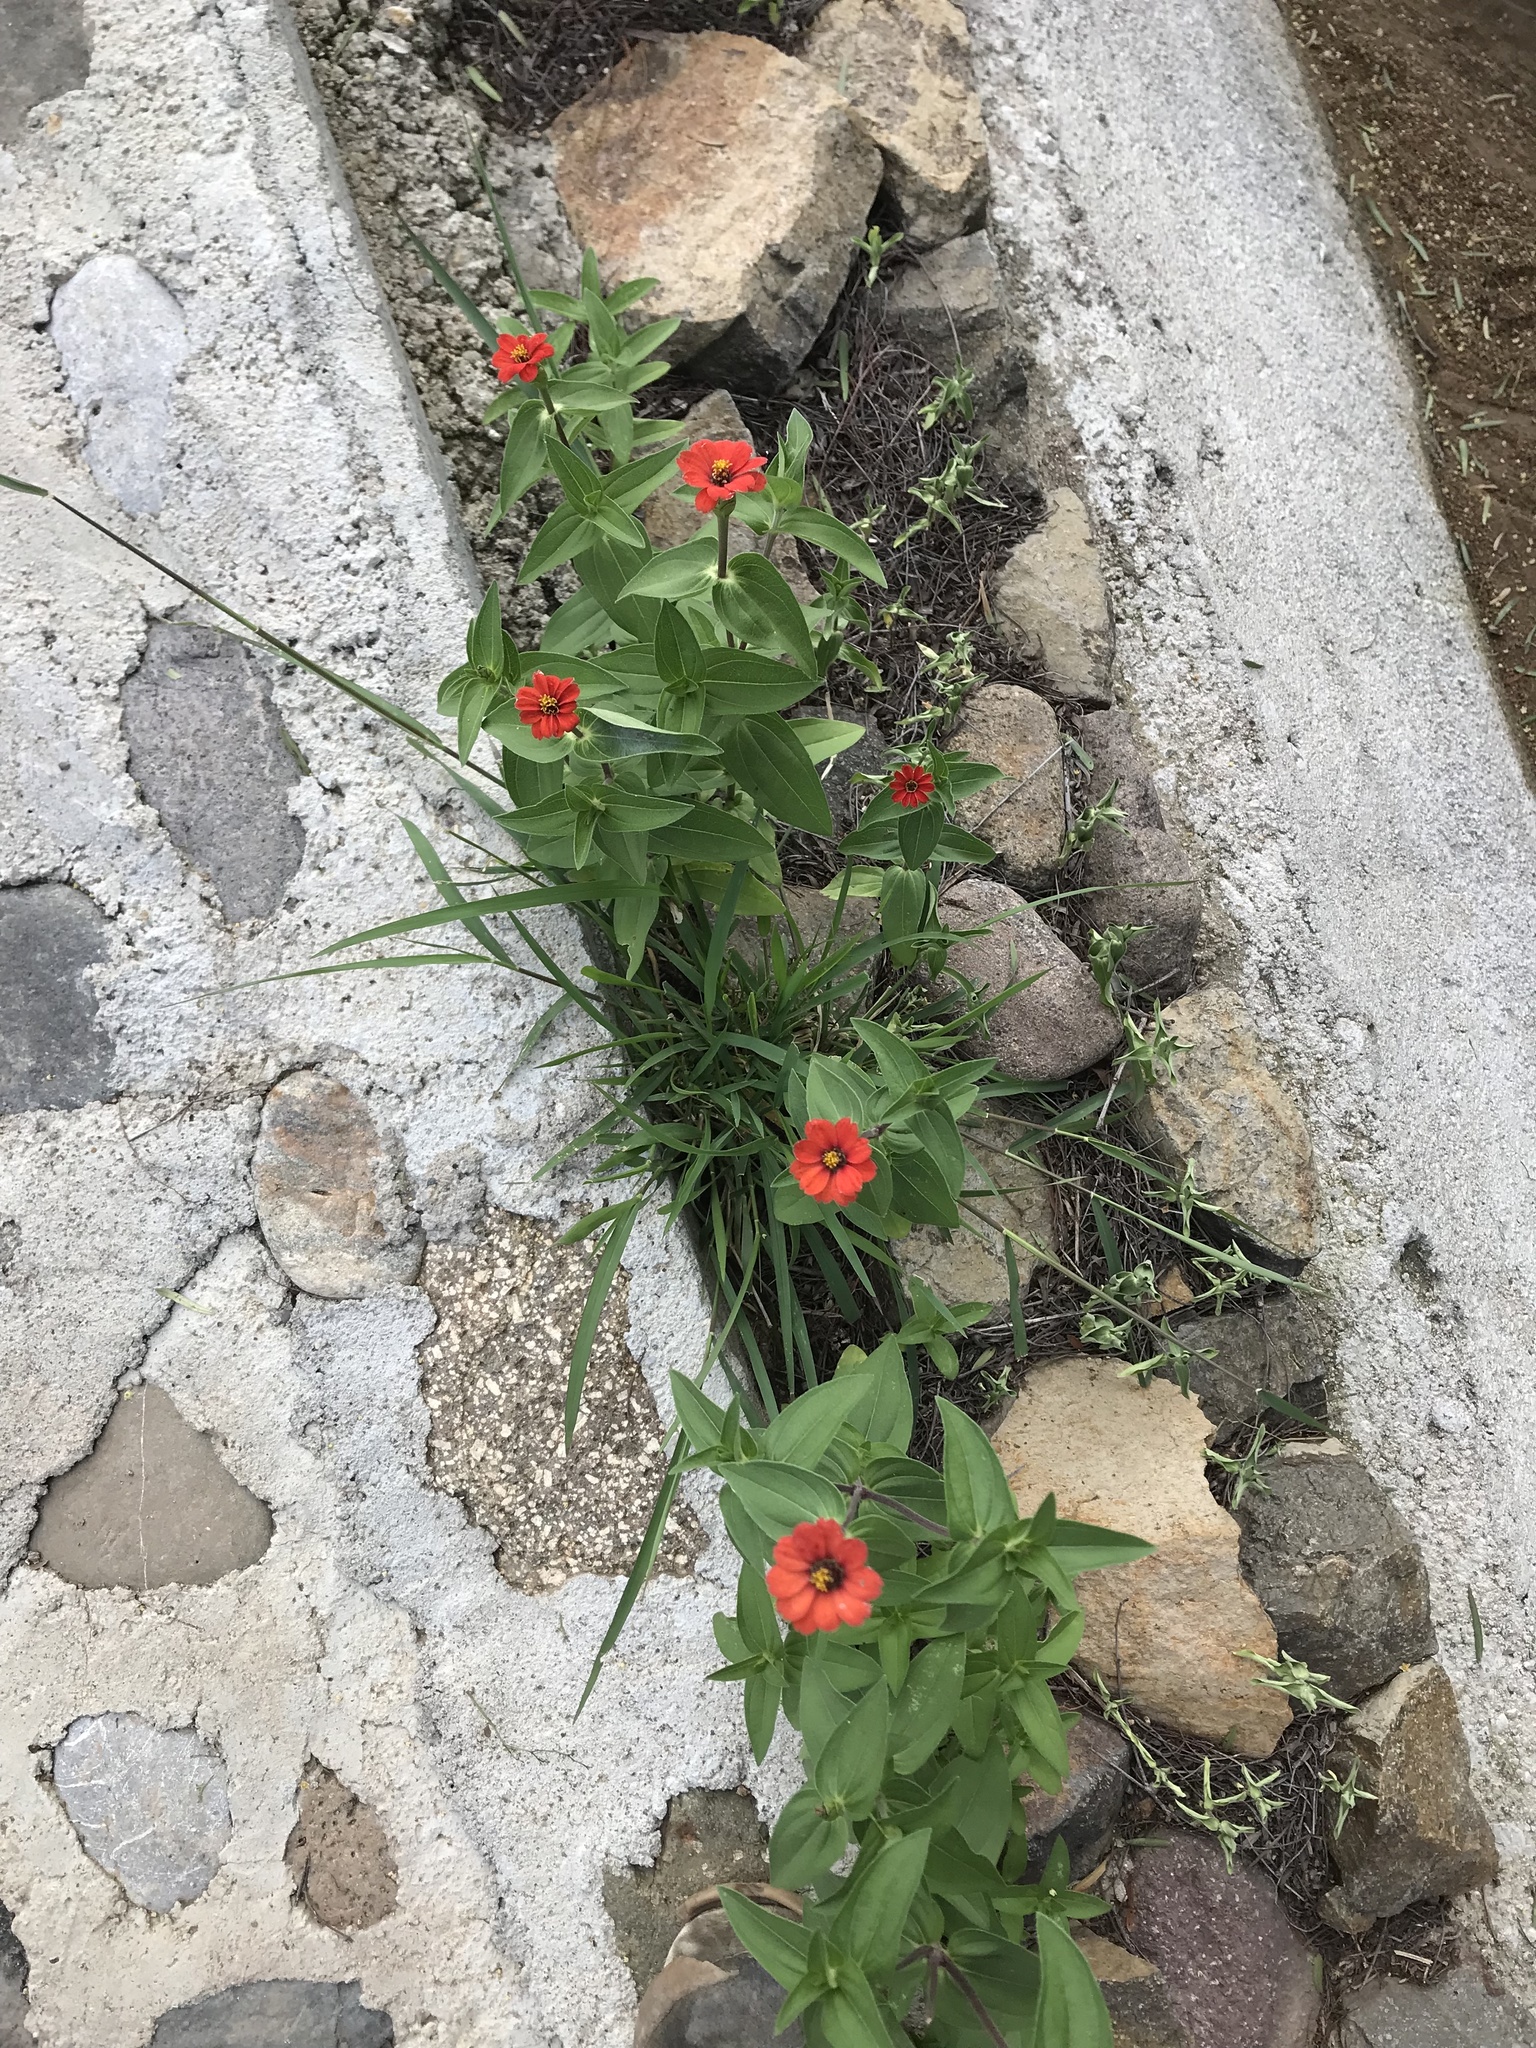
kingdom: Plantae
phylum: Tracheophyta
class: Magnoliopsida
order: Asterales
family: Asteraceae
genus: Zinnia
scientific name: Zinnia peruviana
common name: Peruvian zinnia
